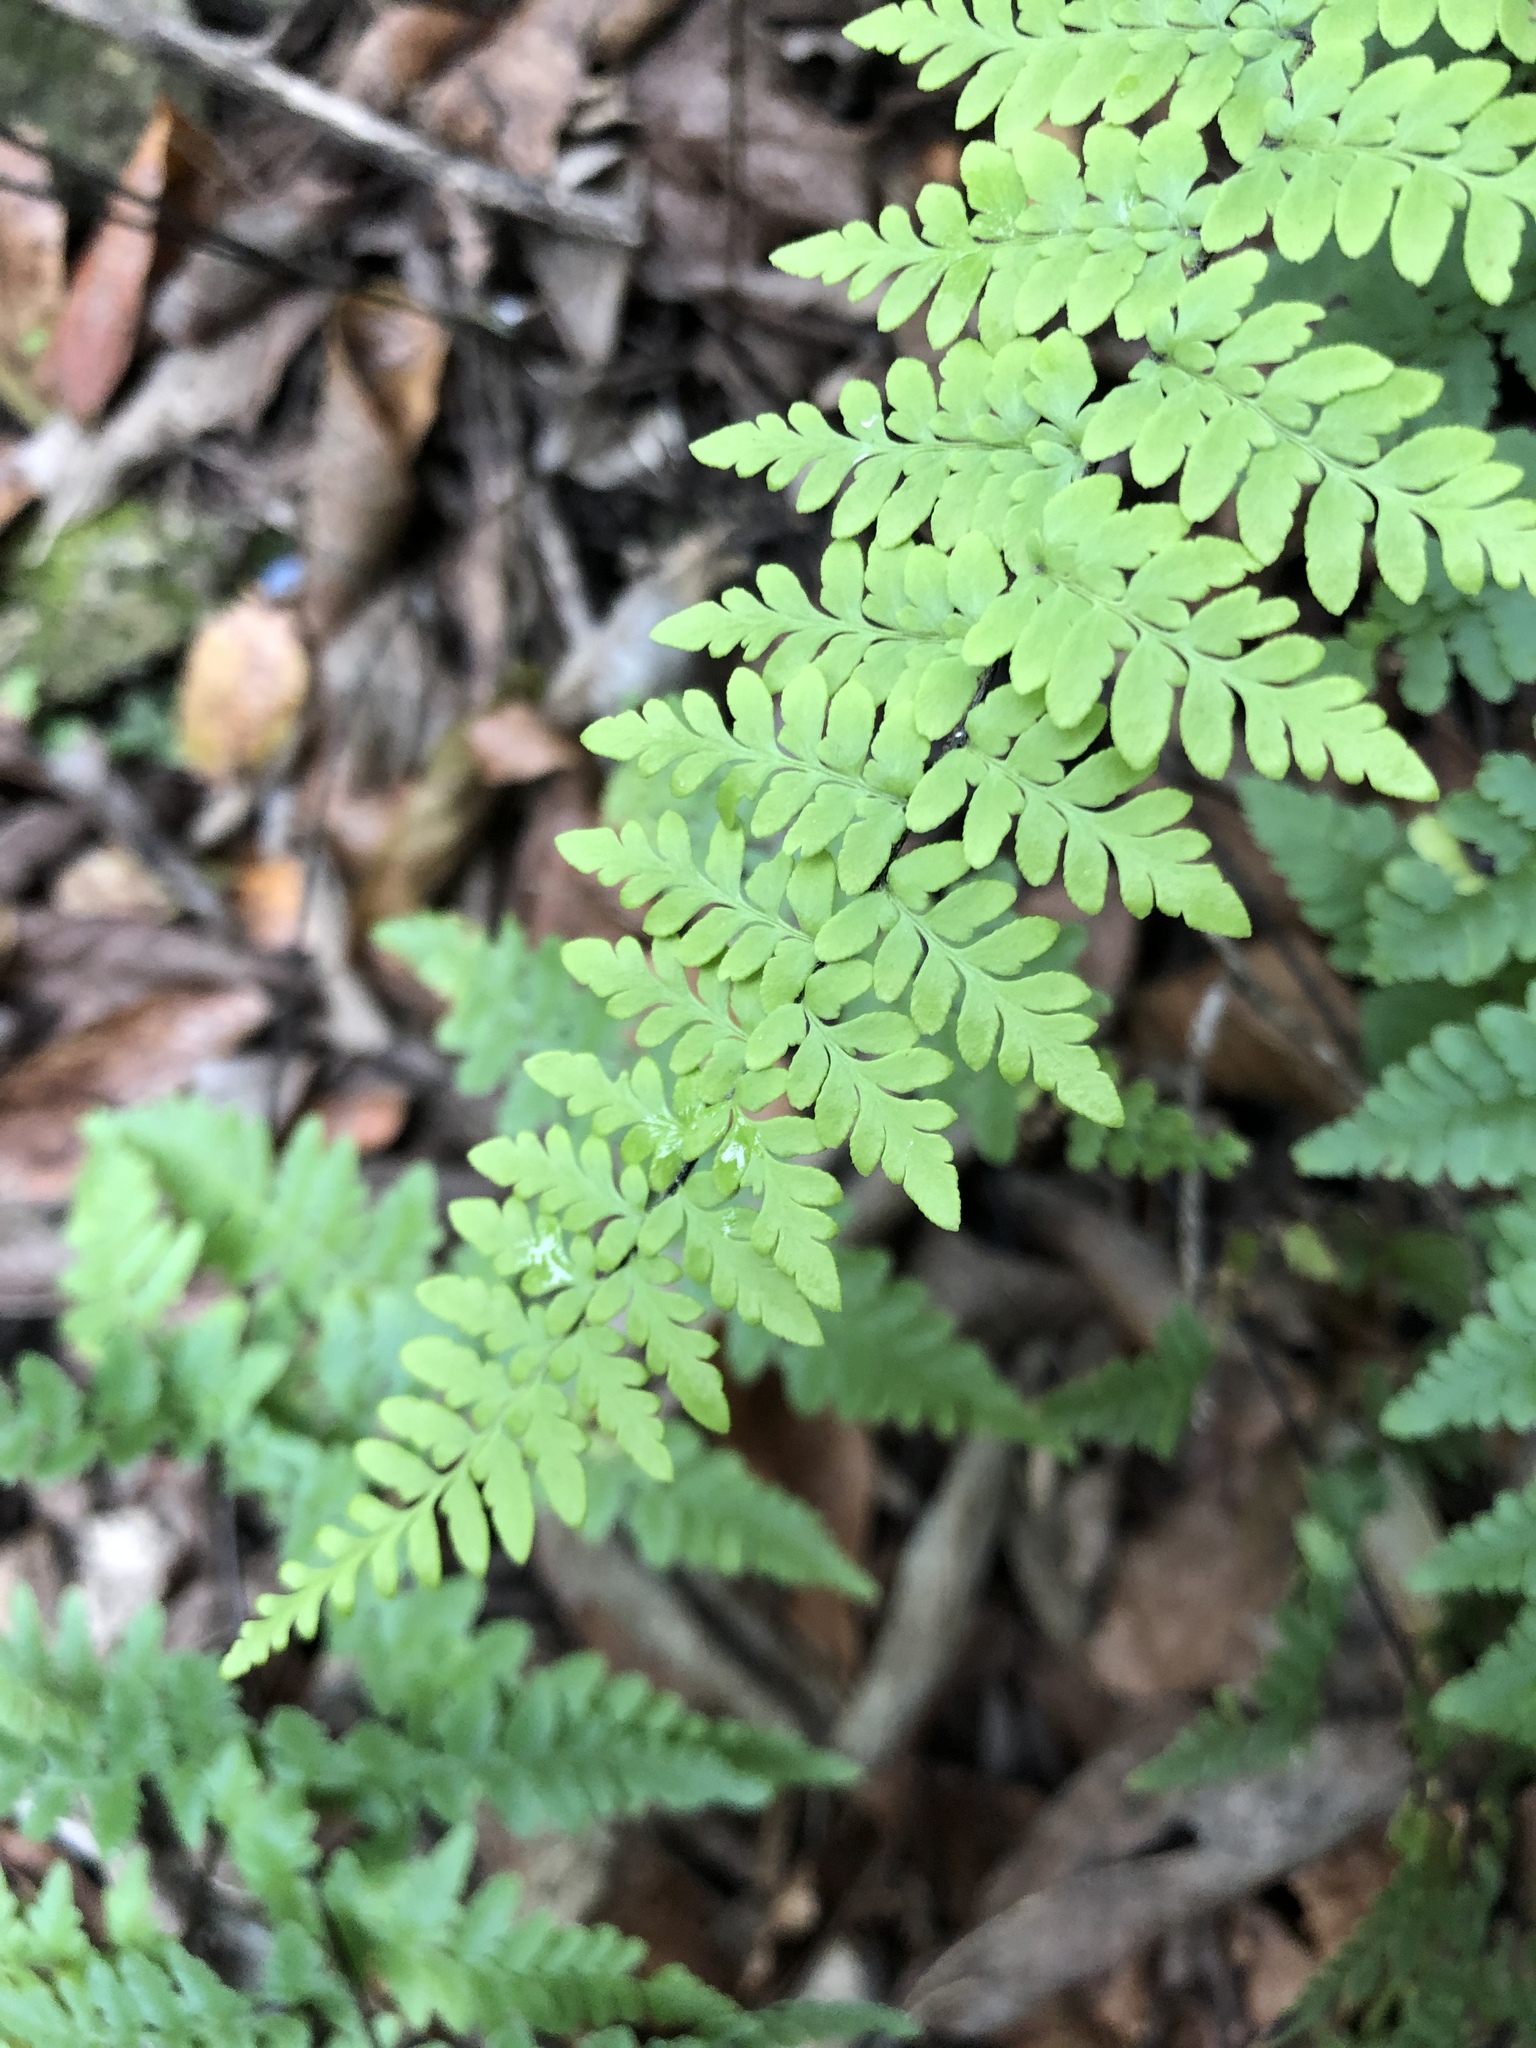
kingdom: Plantae
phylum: Tracheophyta
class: Polypodiopsida
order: Polypodiales
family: Pteridaceae
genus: Myriopteris
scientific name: Myriopteris alabamensis
